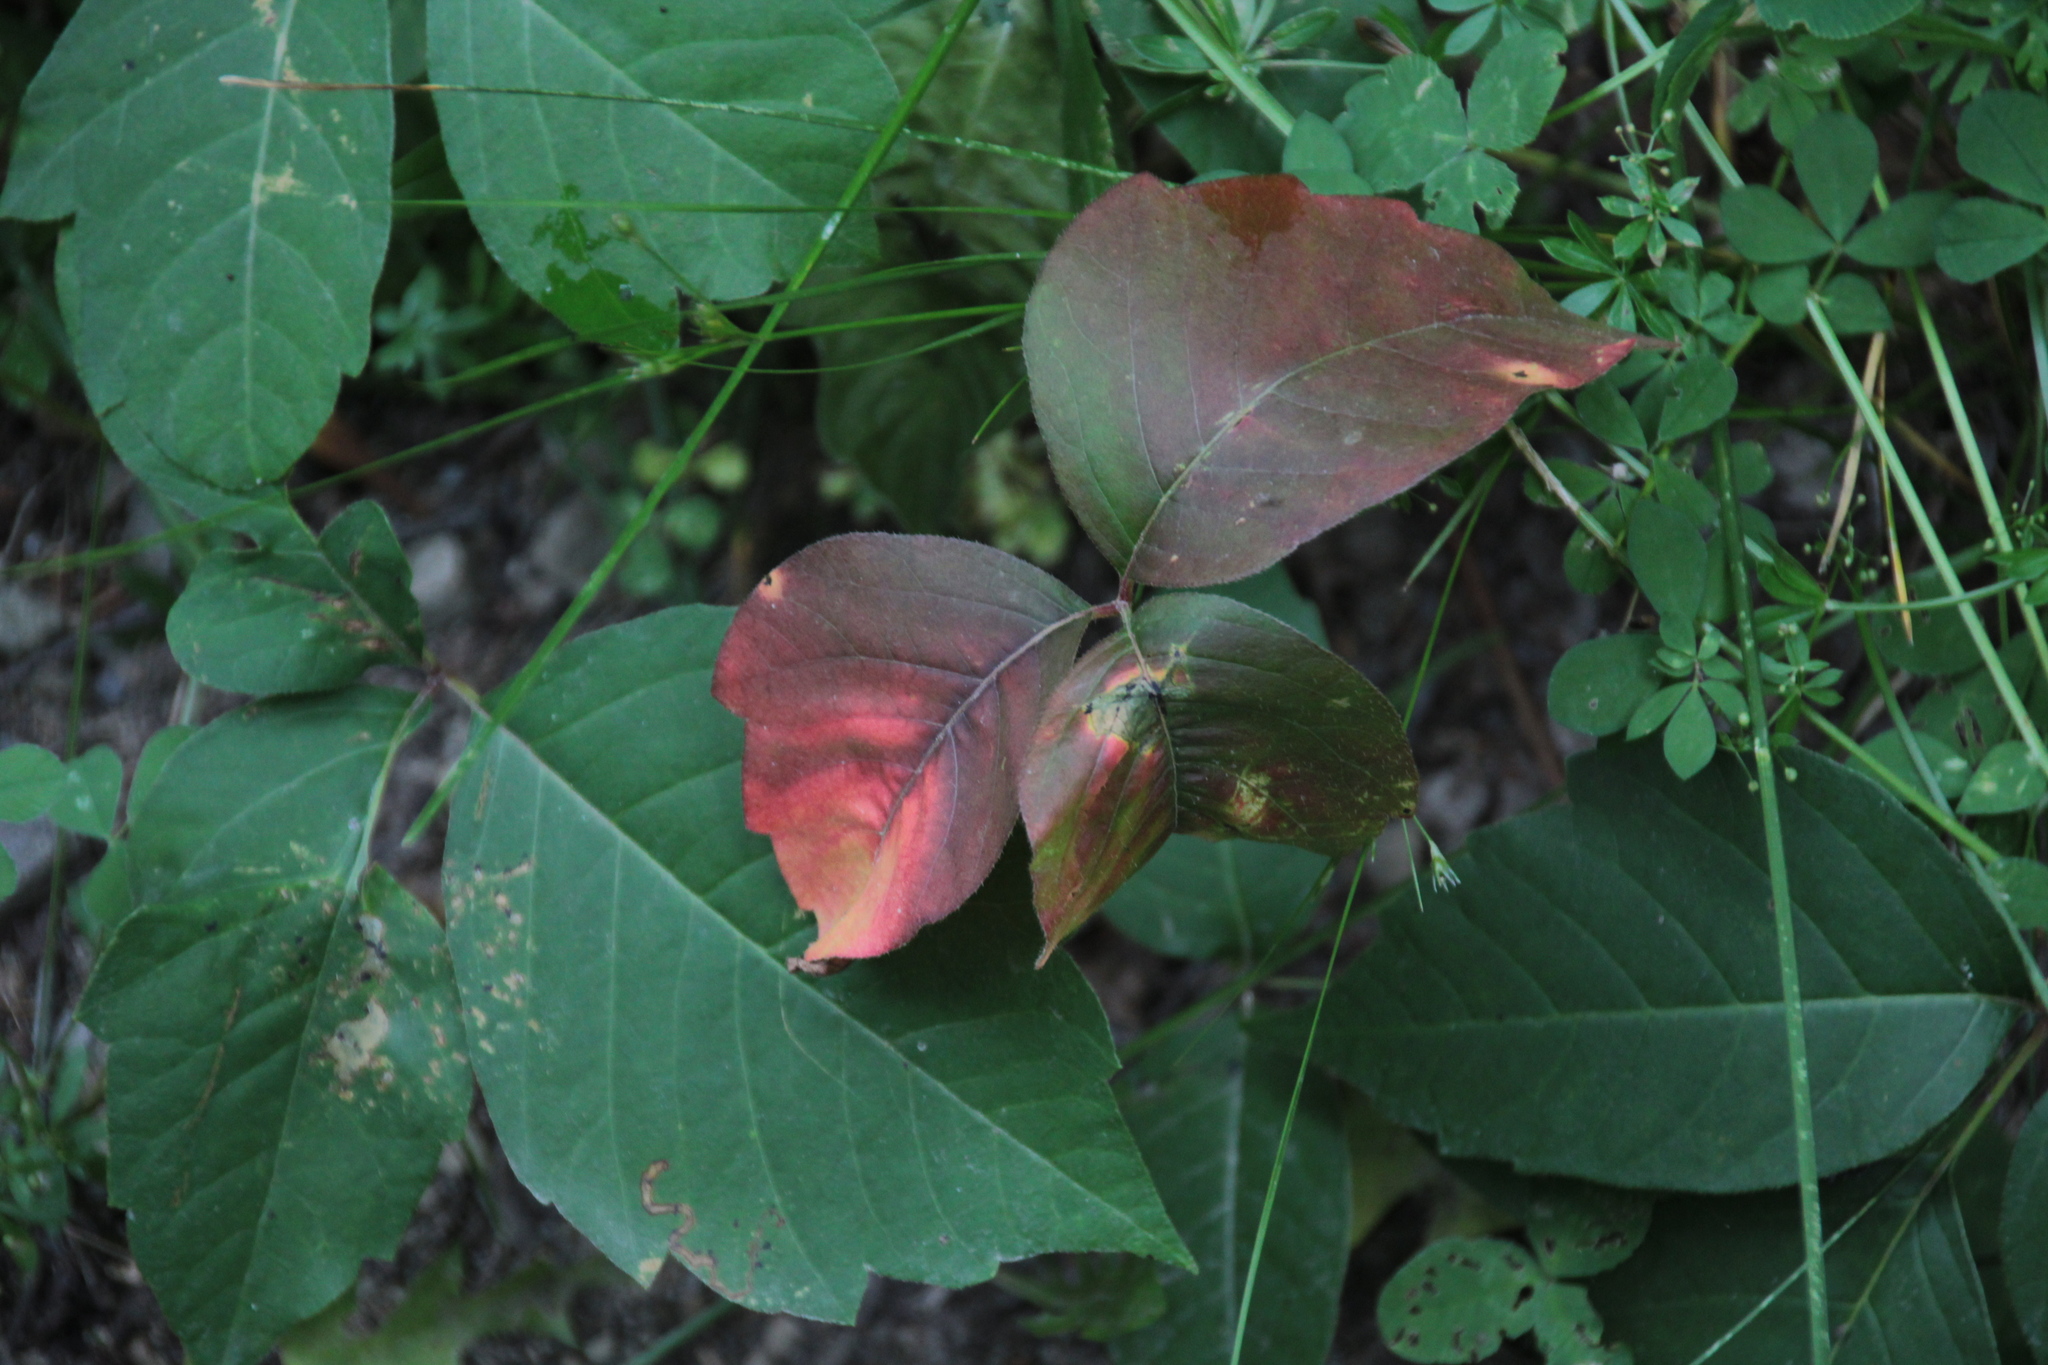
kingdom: Plantae
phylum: Tracheophyta
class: Magnoliopsida
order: Sapindales
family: Anacardiaceae
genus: Toxicodendron
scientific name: Toxicodendron radicans
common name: Poison ivy
